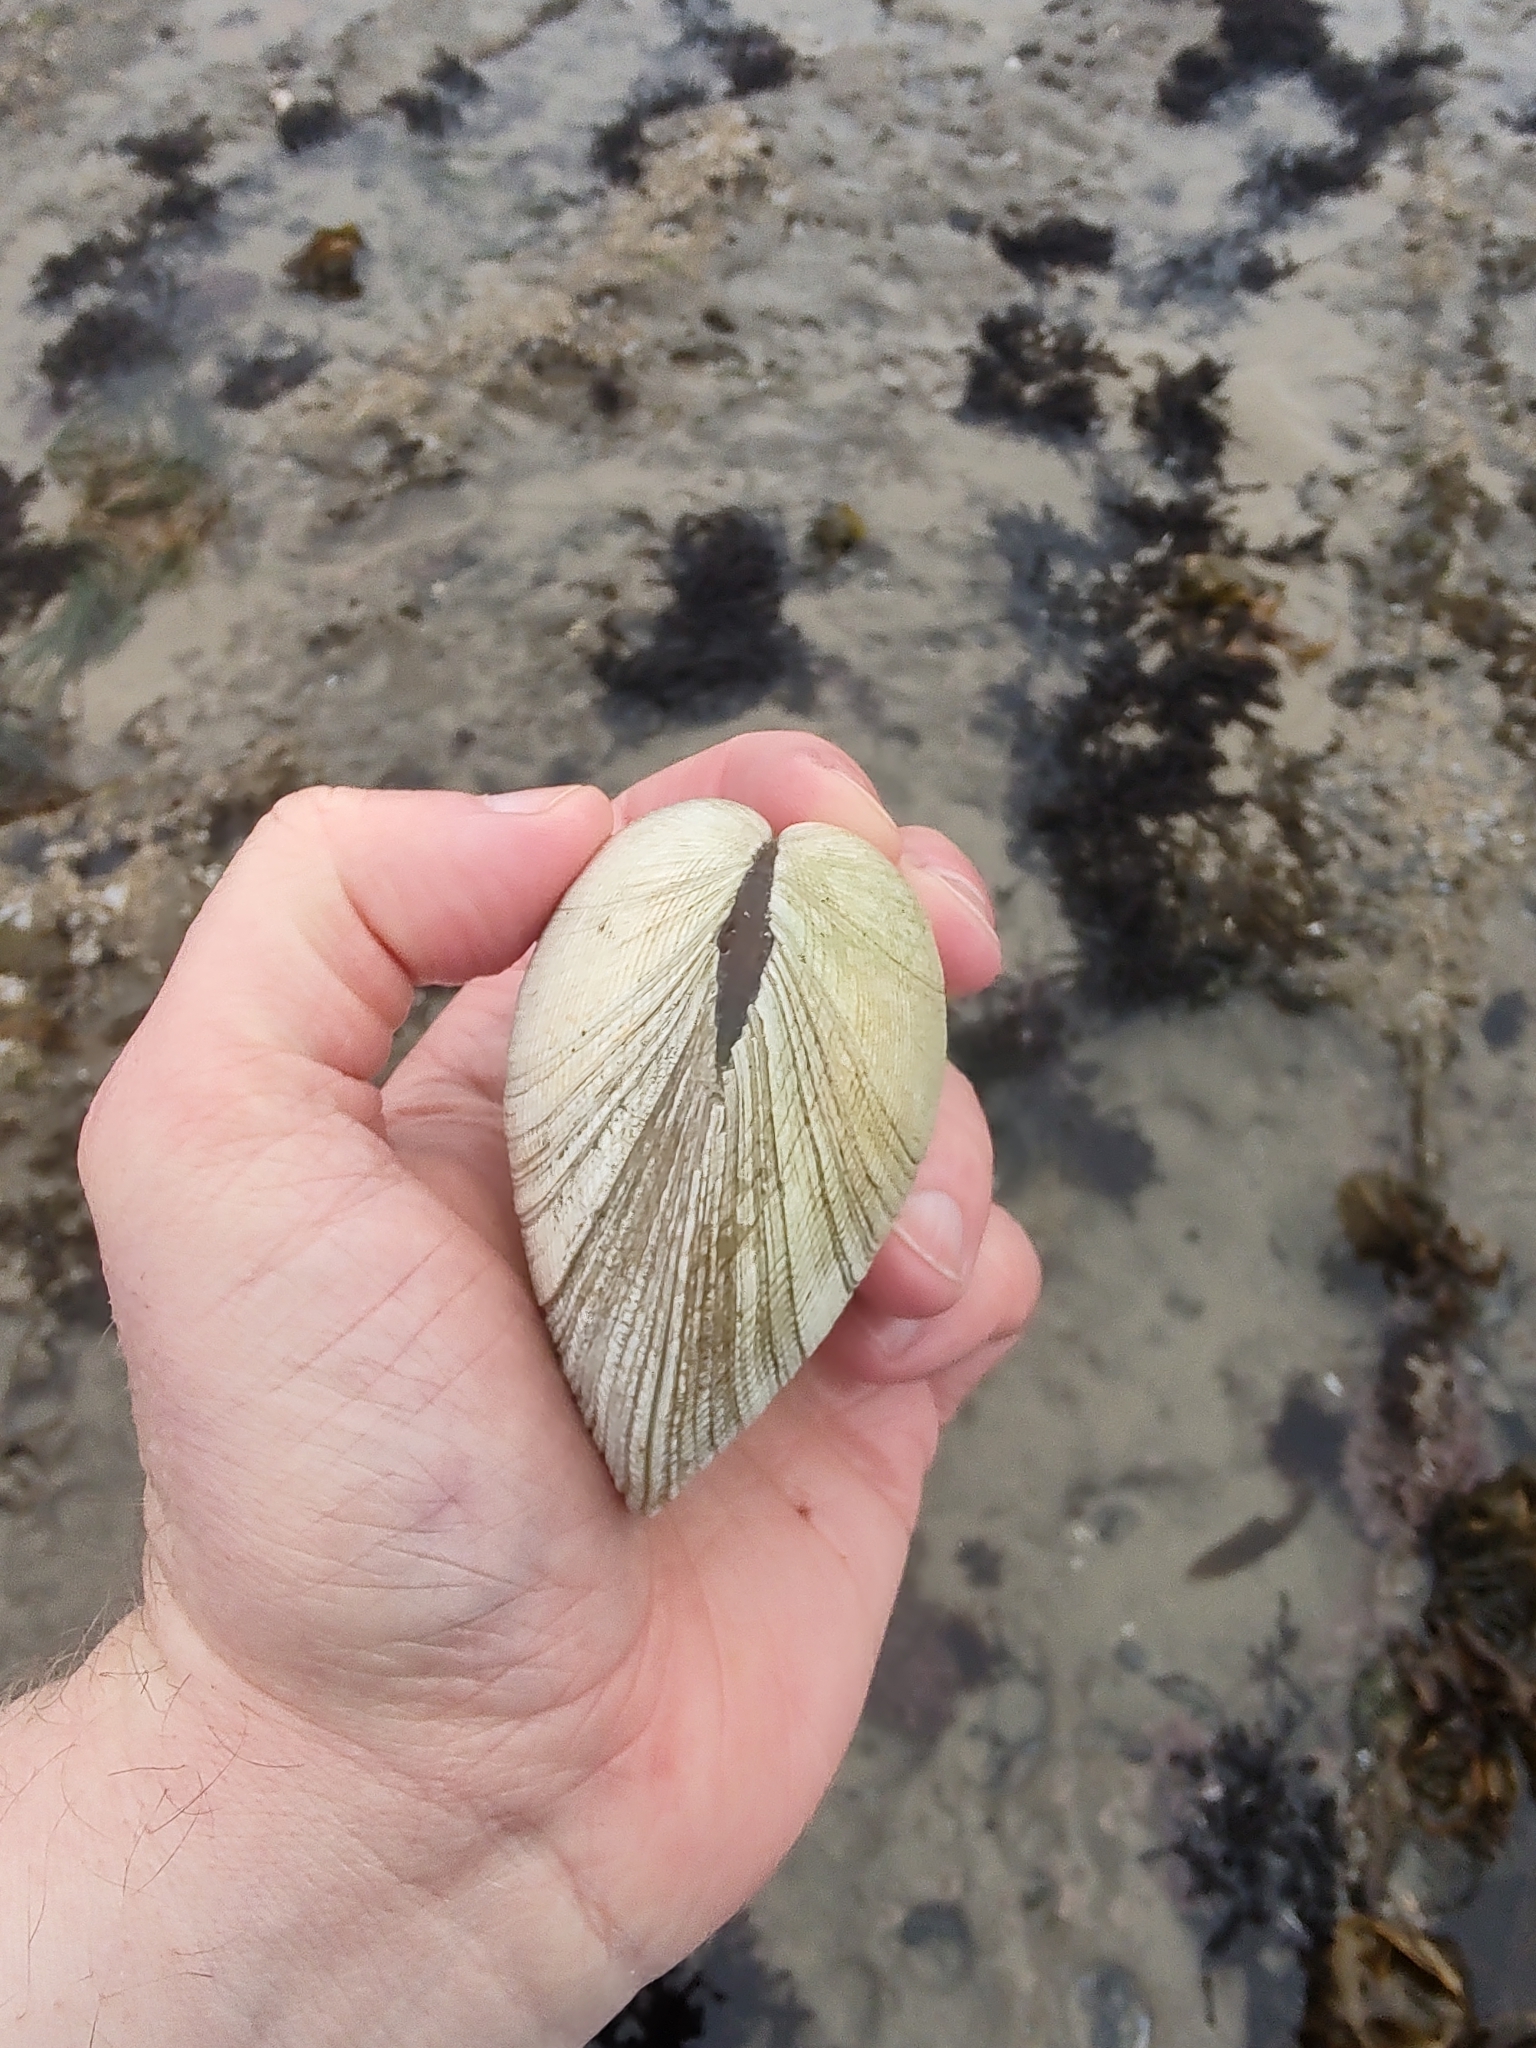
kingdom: Animalia
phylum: Mollusca
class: Bivalvia
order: Venerida
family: Veneridae
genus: Leukoma
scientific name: Leukoma staminea
